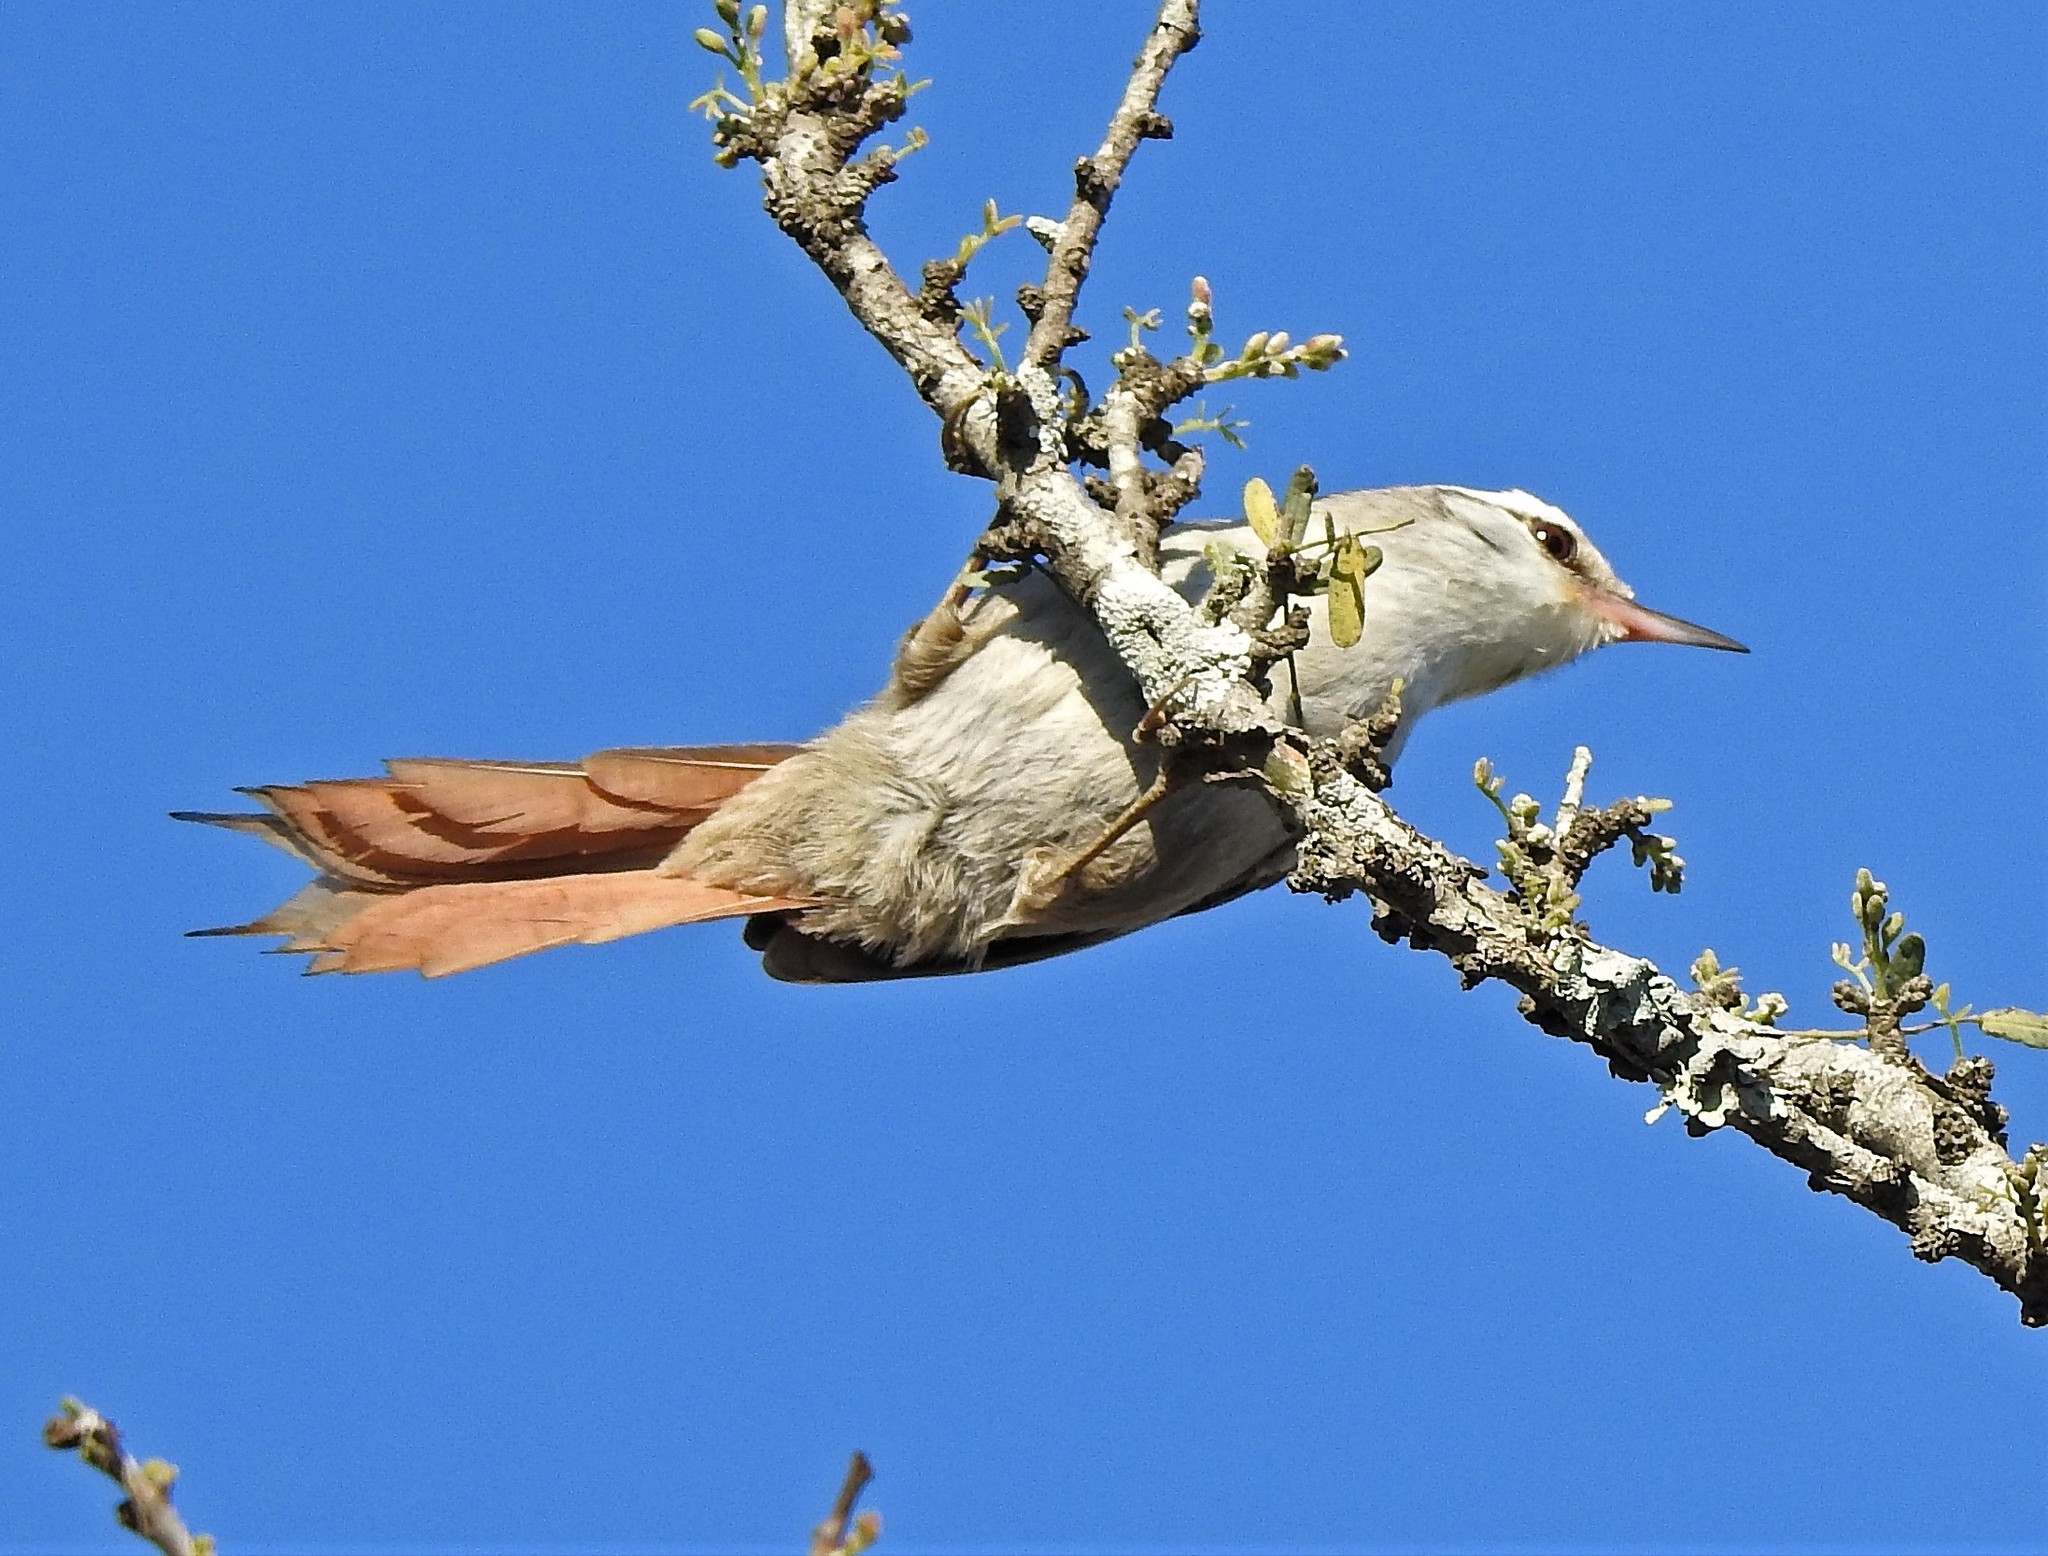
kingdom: Animalia
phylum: Chordata
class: Aves
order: Passeriformes
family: Furnariidae
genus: Cranioleuca
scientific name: Cranioleuca pyrrhophia
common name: Stripe-crowned spinetail
